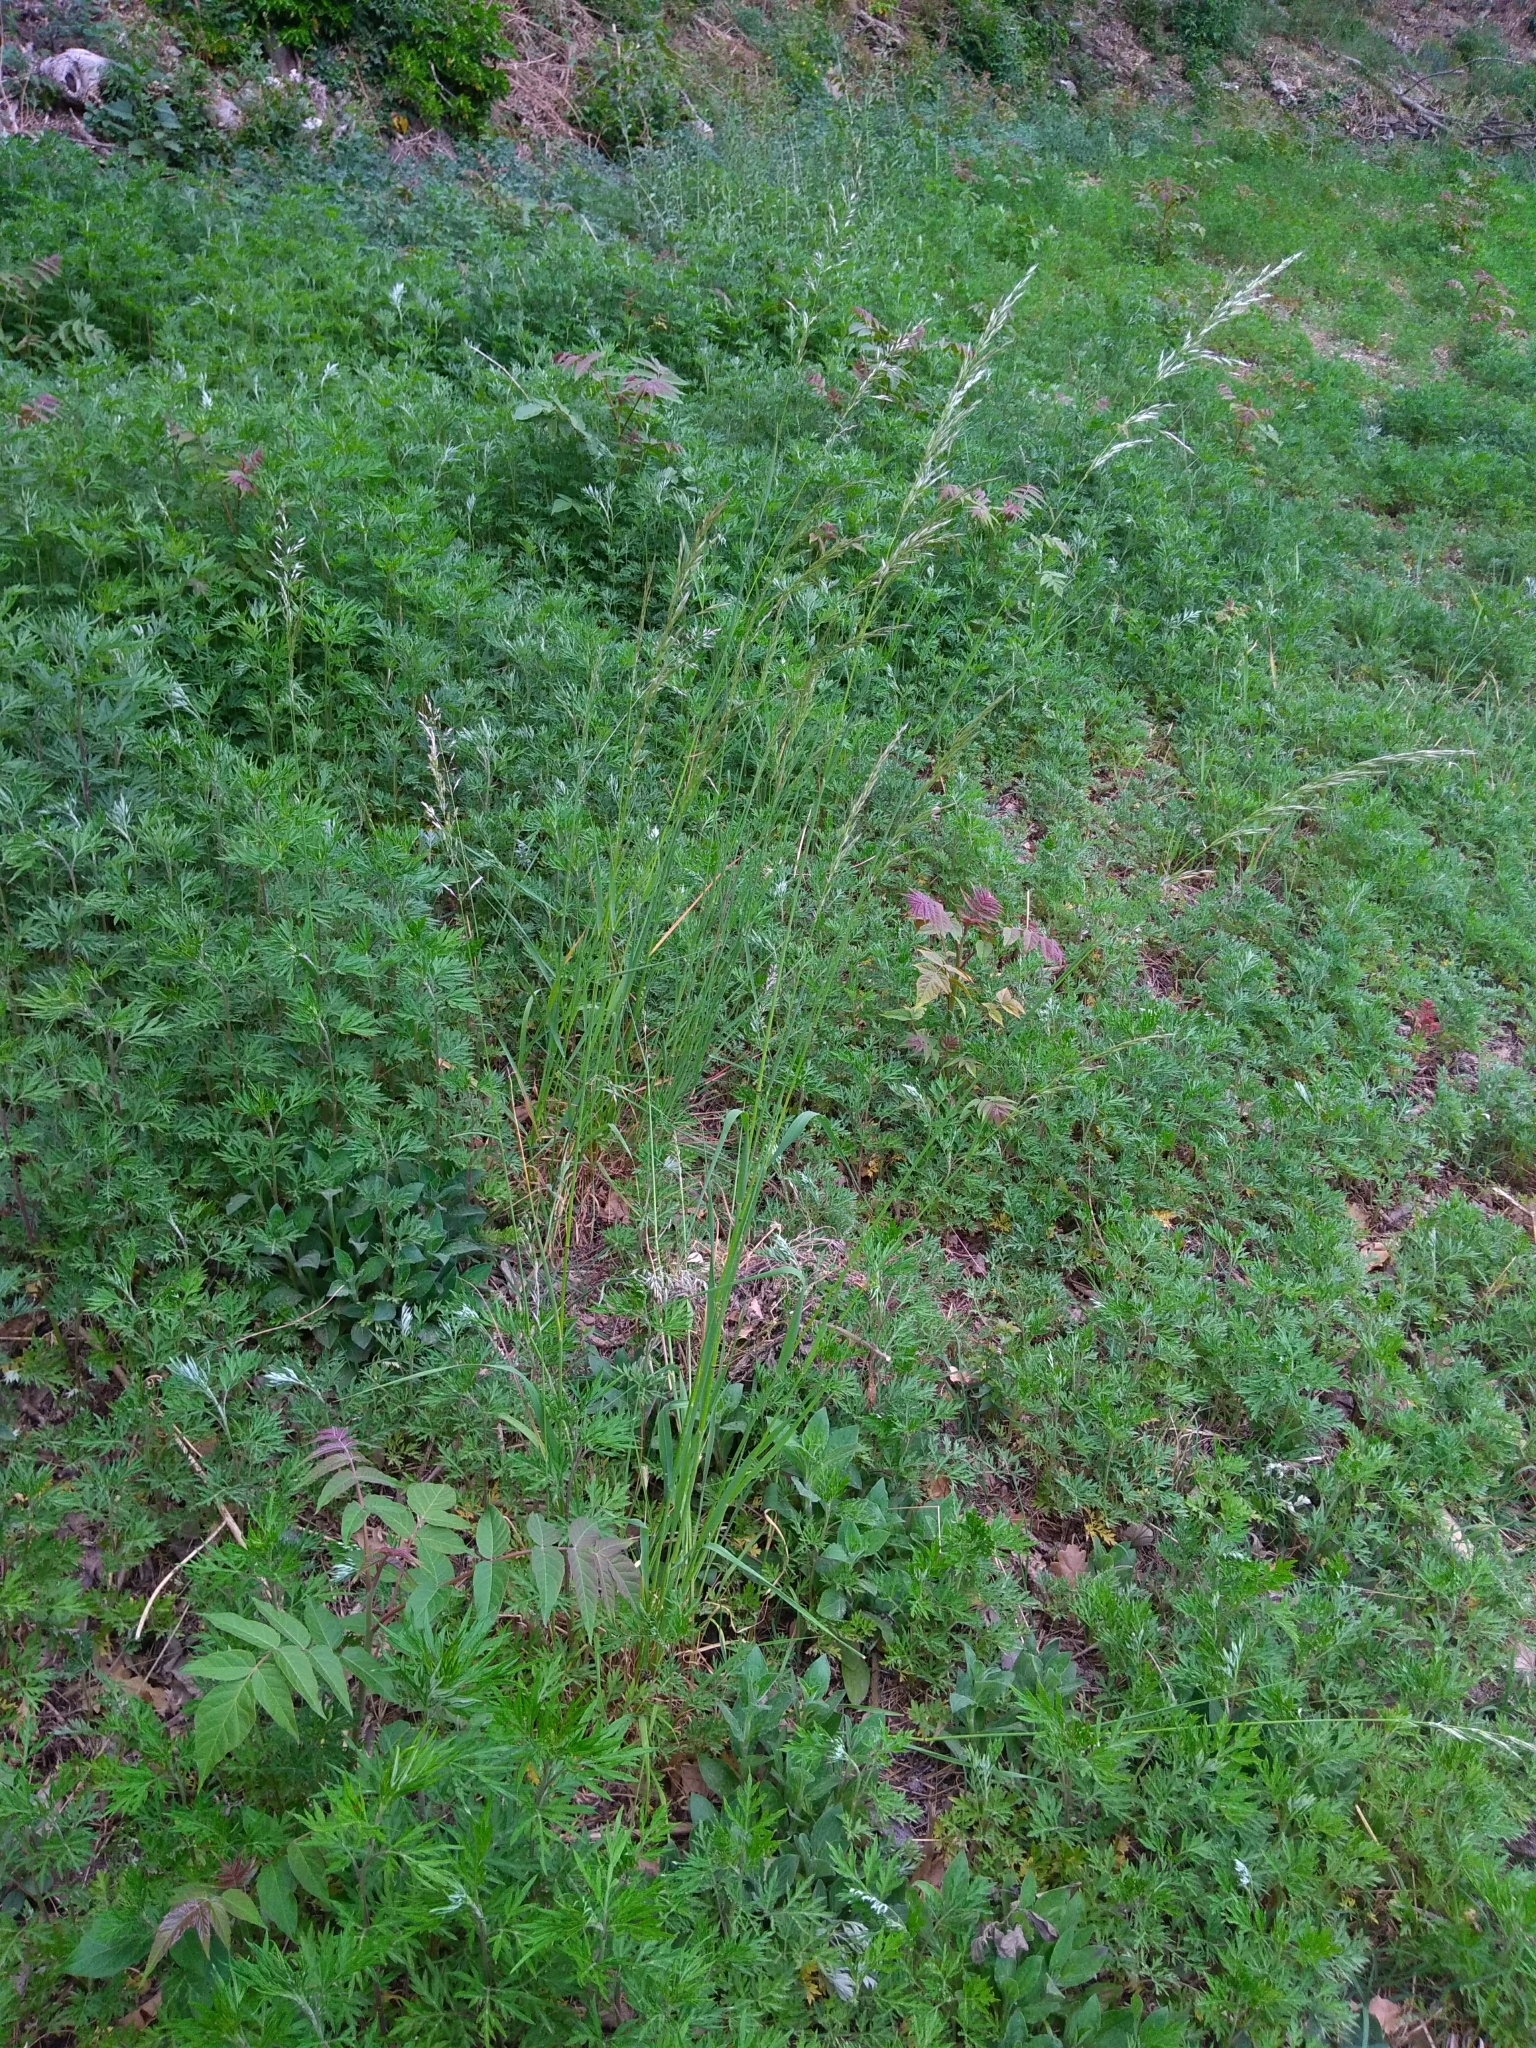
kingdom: Plantae
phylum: Tracheophyta
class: Liliopsida
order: Poales
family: Poaceae
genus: Arrhenatherum
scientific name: Arrhenatherum elatius
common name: Tall oatgrass
